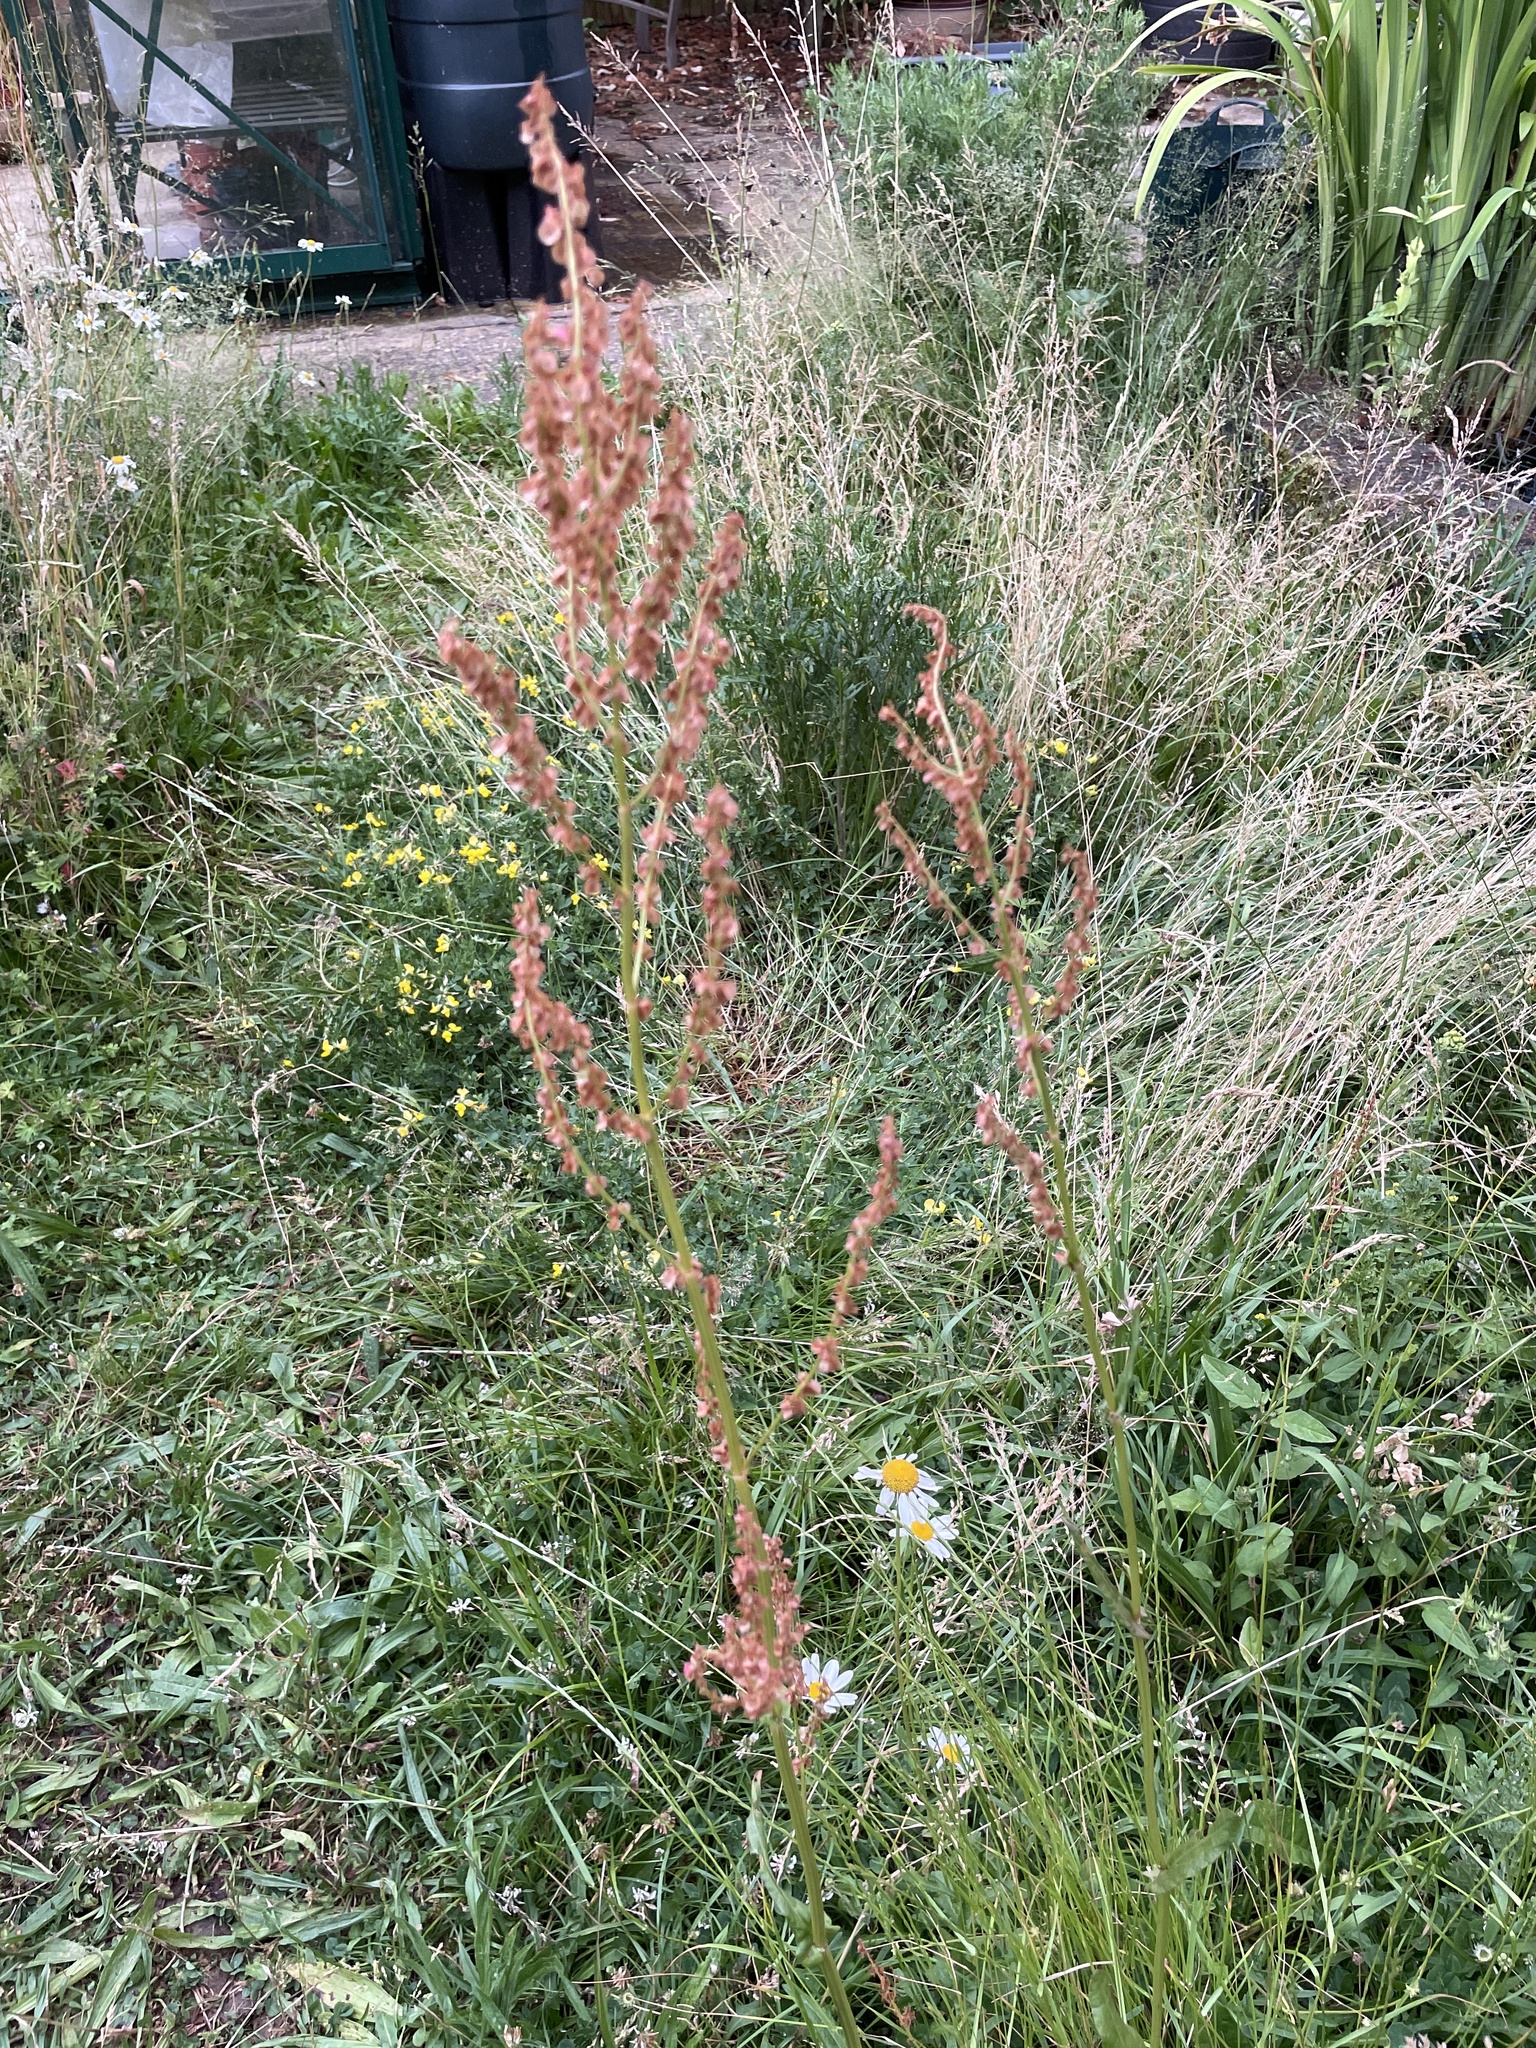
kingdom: Plantae
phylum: Tracheophyta
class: Magnoliopsida
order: Caryophyllales
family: Polygonaceae
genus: Rumex
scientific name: Rumex acetosa
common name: Garden sorrel
